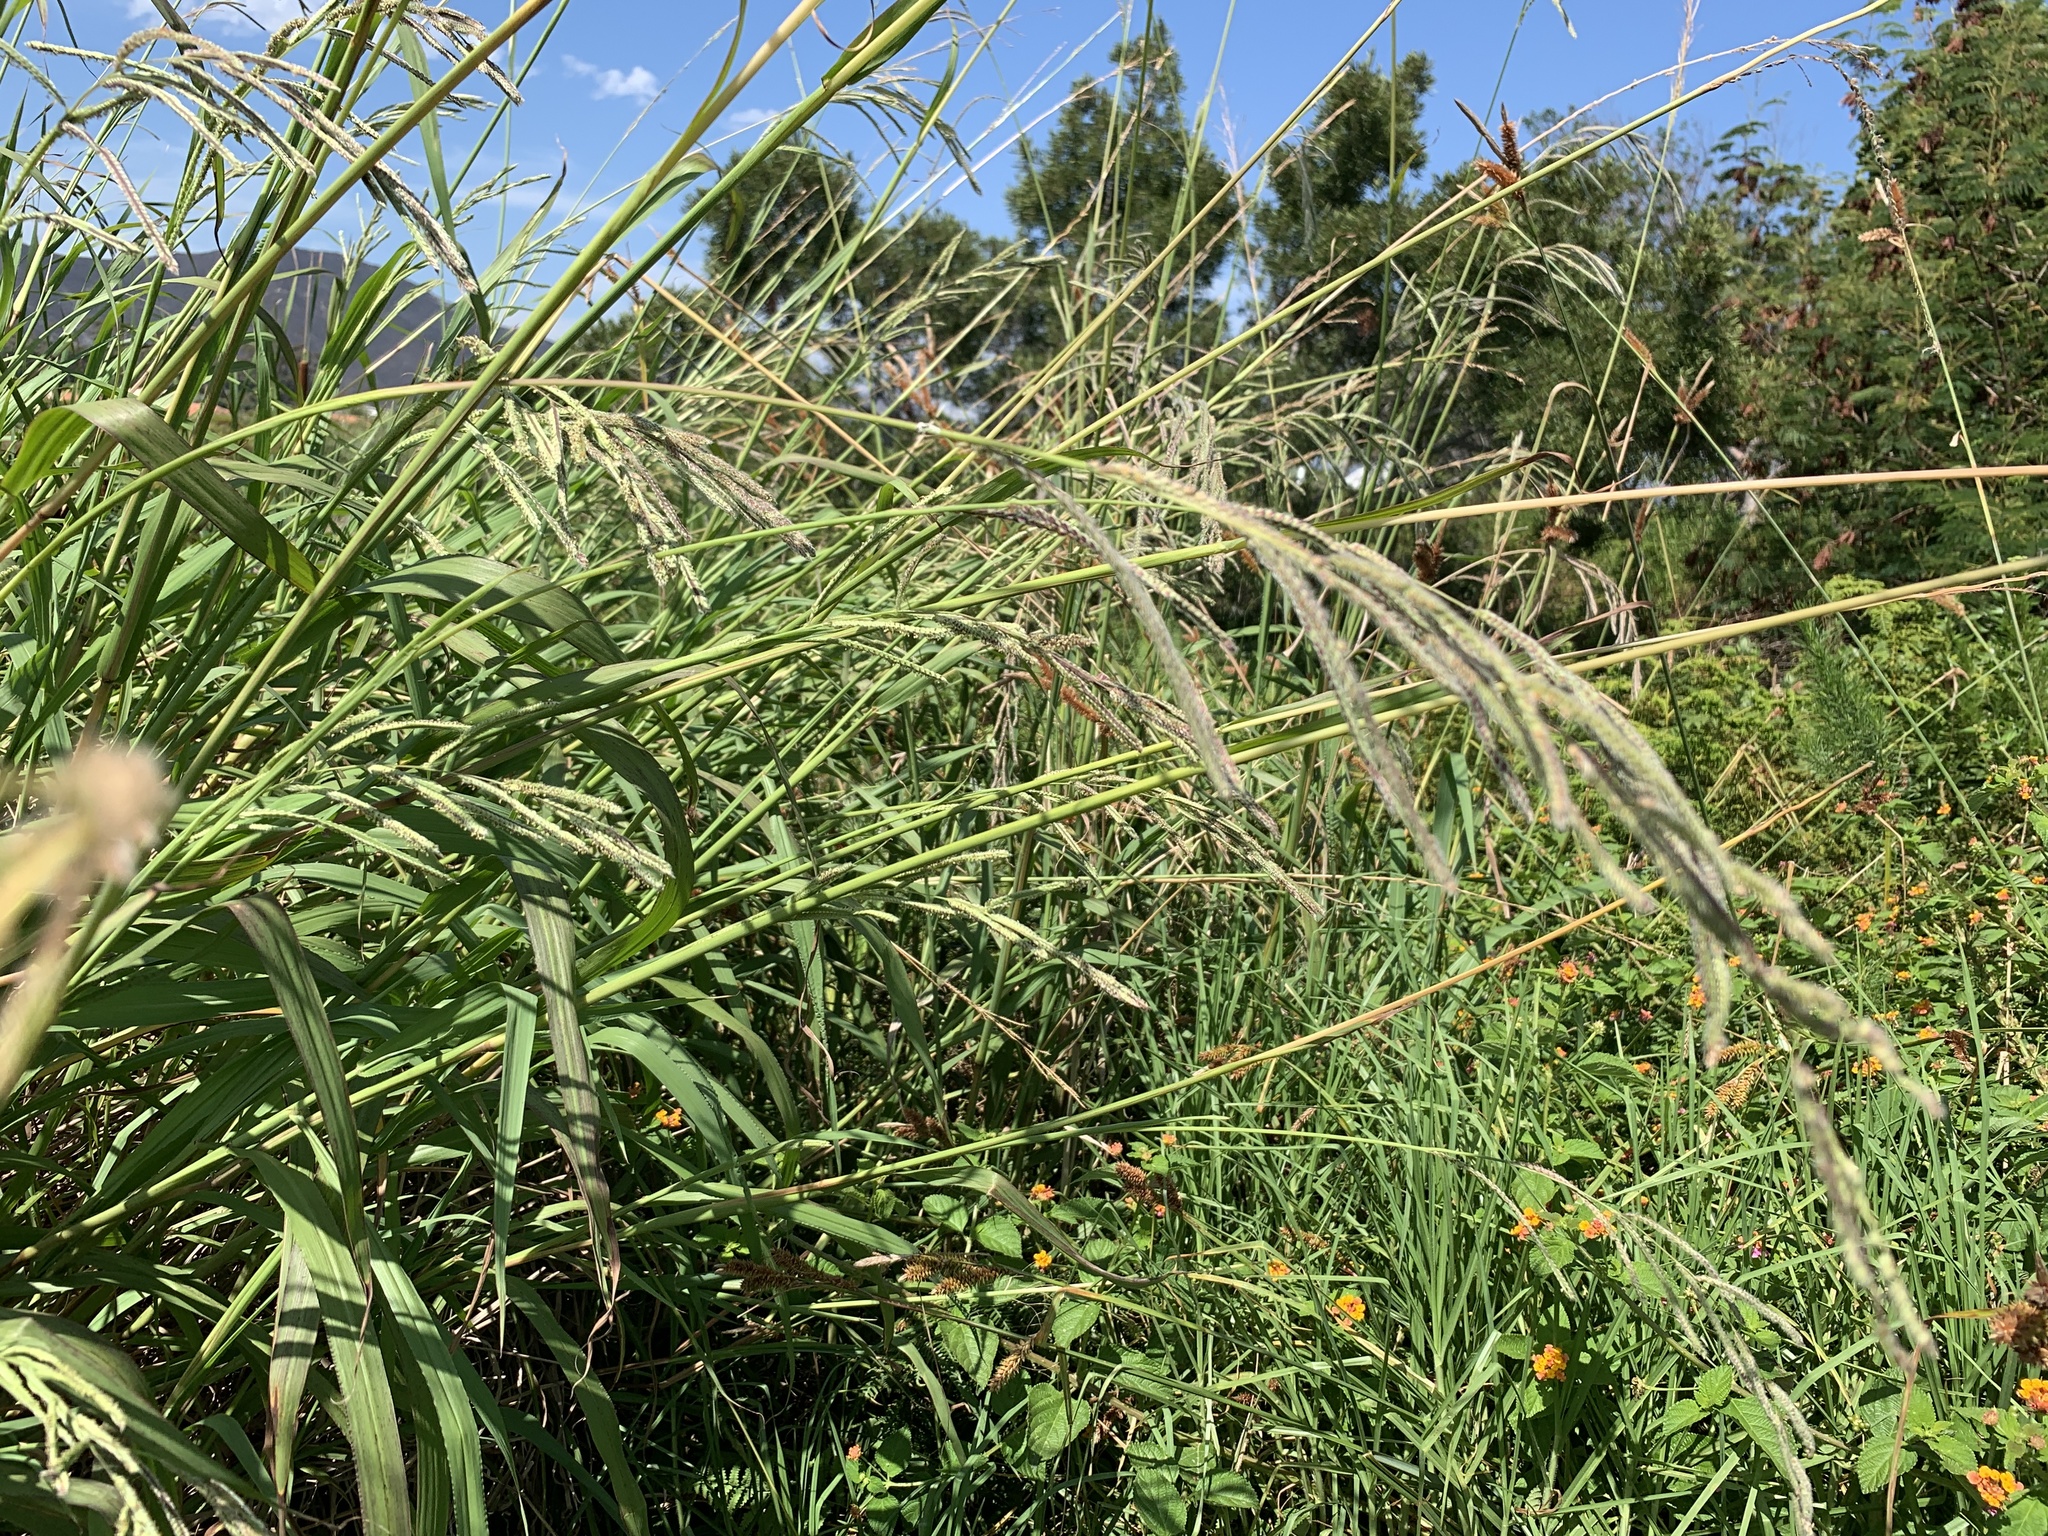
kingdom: Plantae
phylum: Tracheophyta
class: Liliopsida
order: Poales
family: Poaceae
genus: Paspalum
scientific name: Paspalum urvillei
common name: Vasey's grass
